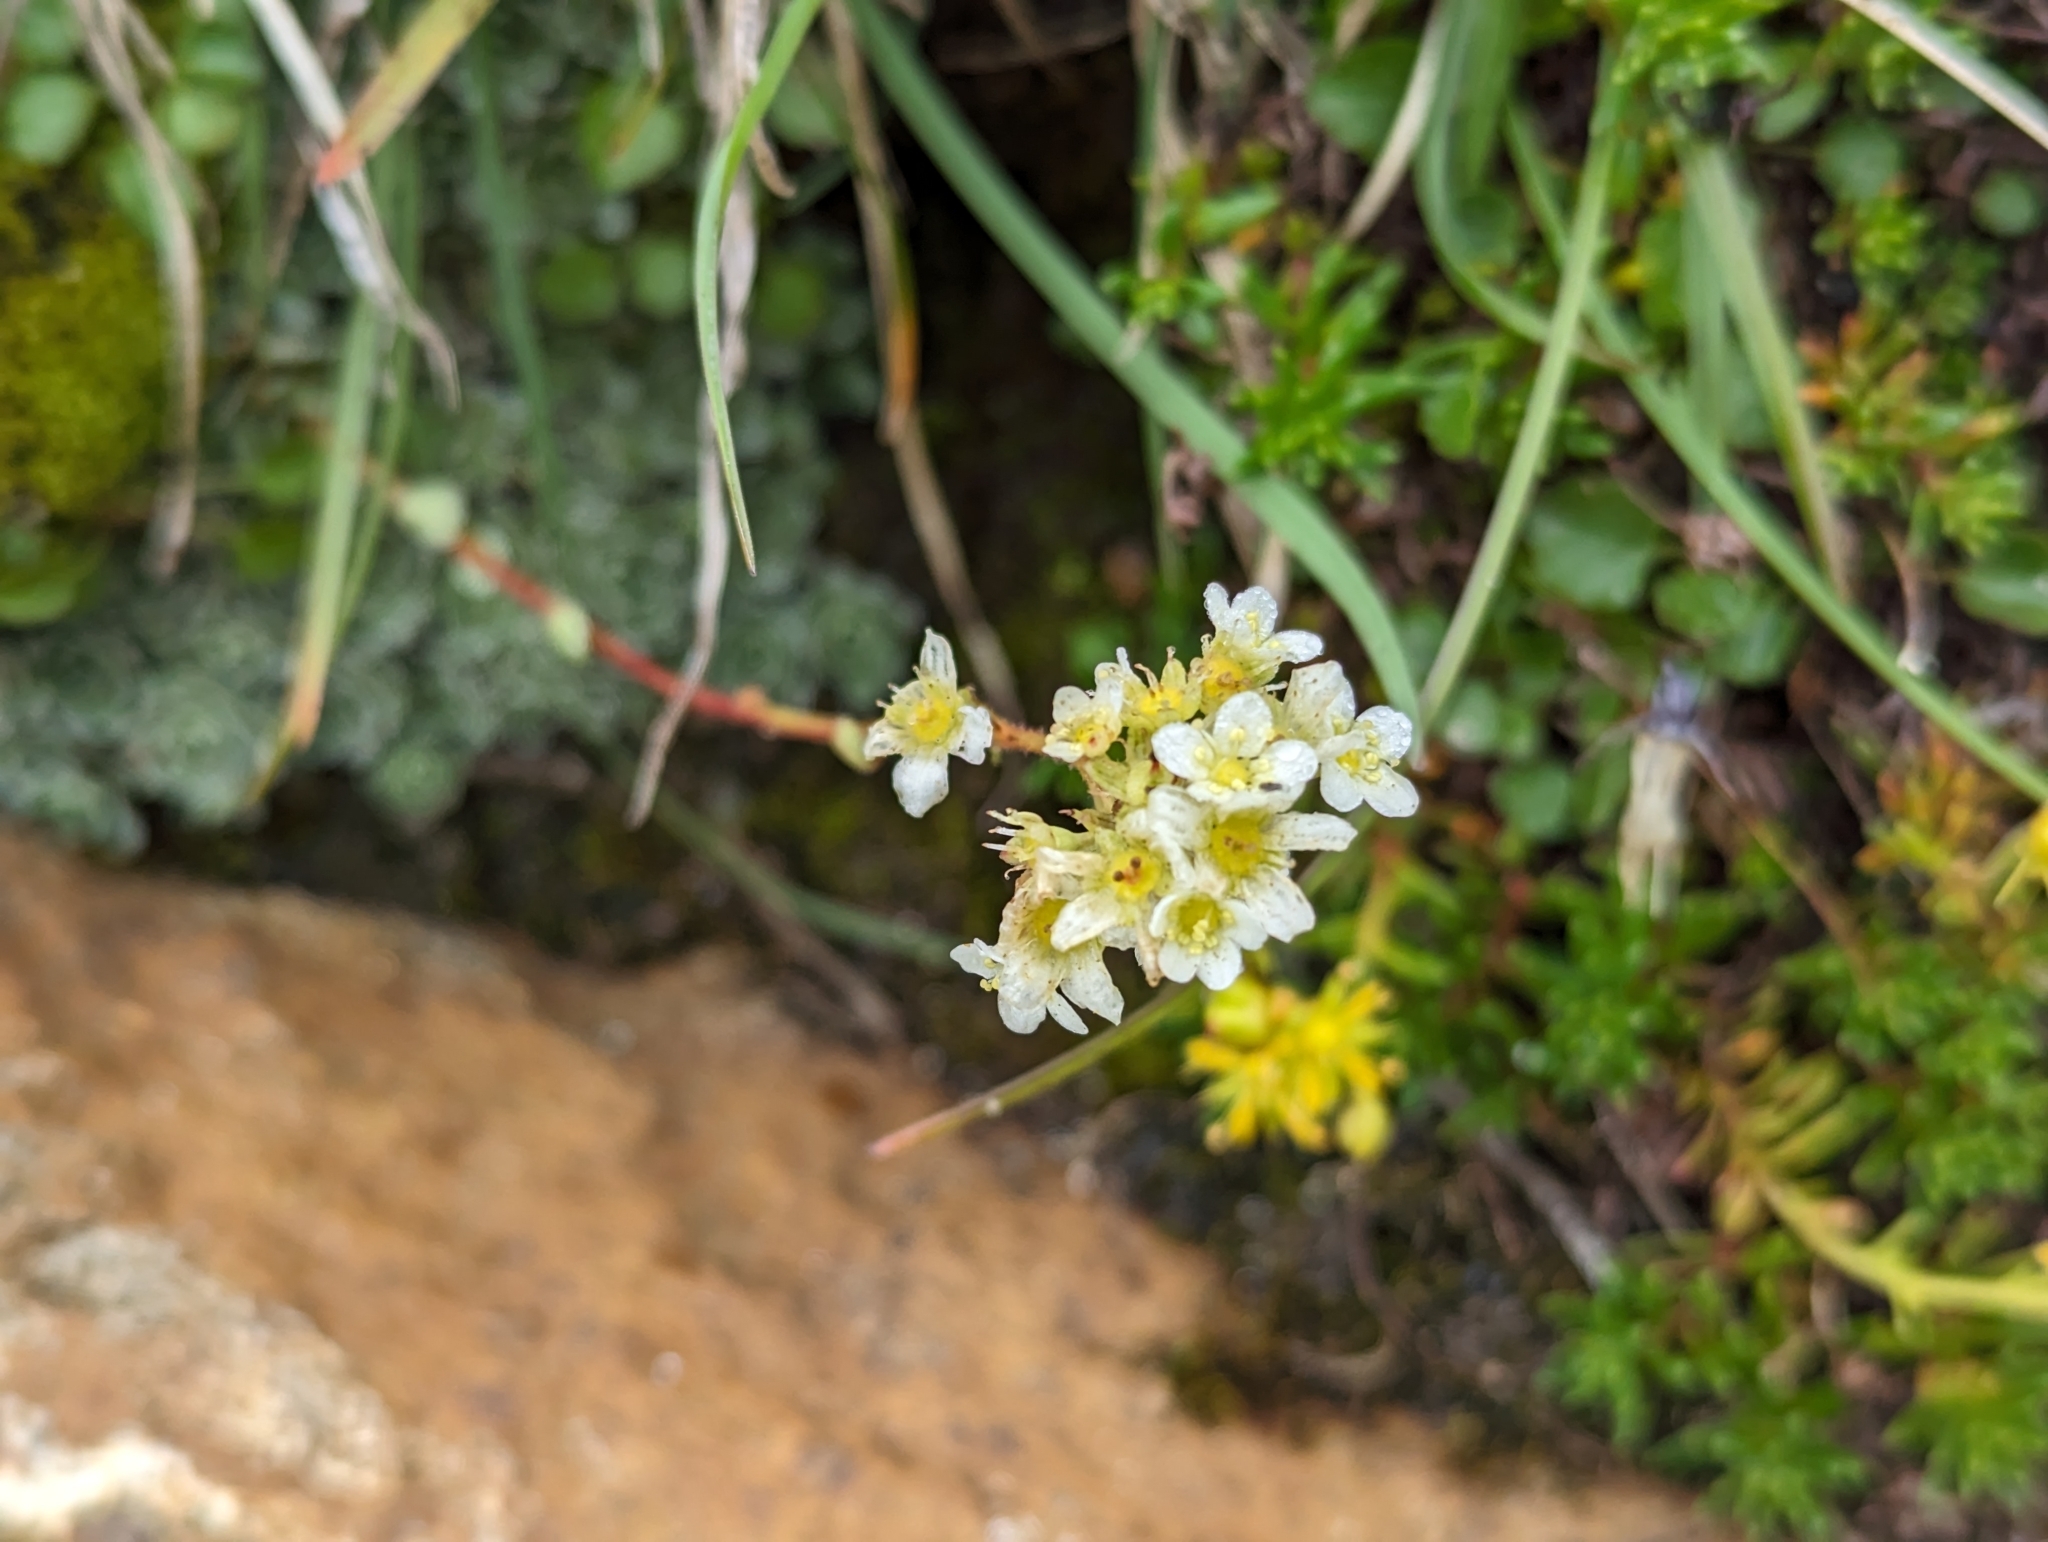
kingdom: Plantae
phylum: Tracheophyta
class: Magnoliopsida
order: Saxifragales
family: Saxifragaceae
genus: Saxifraga
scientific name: Saxifraga paniculata
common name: Livelong saxifrage
